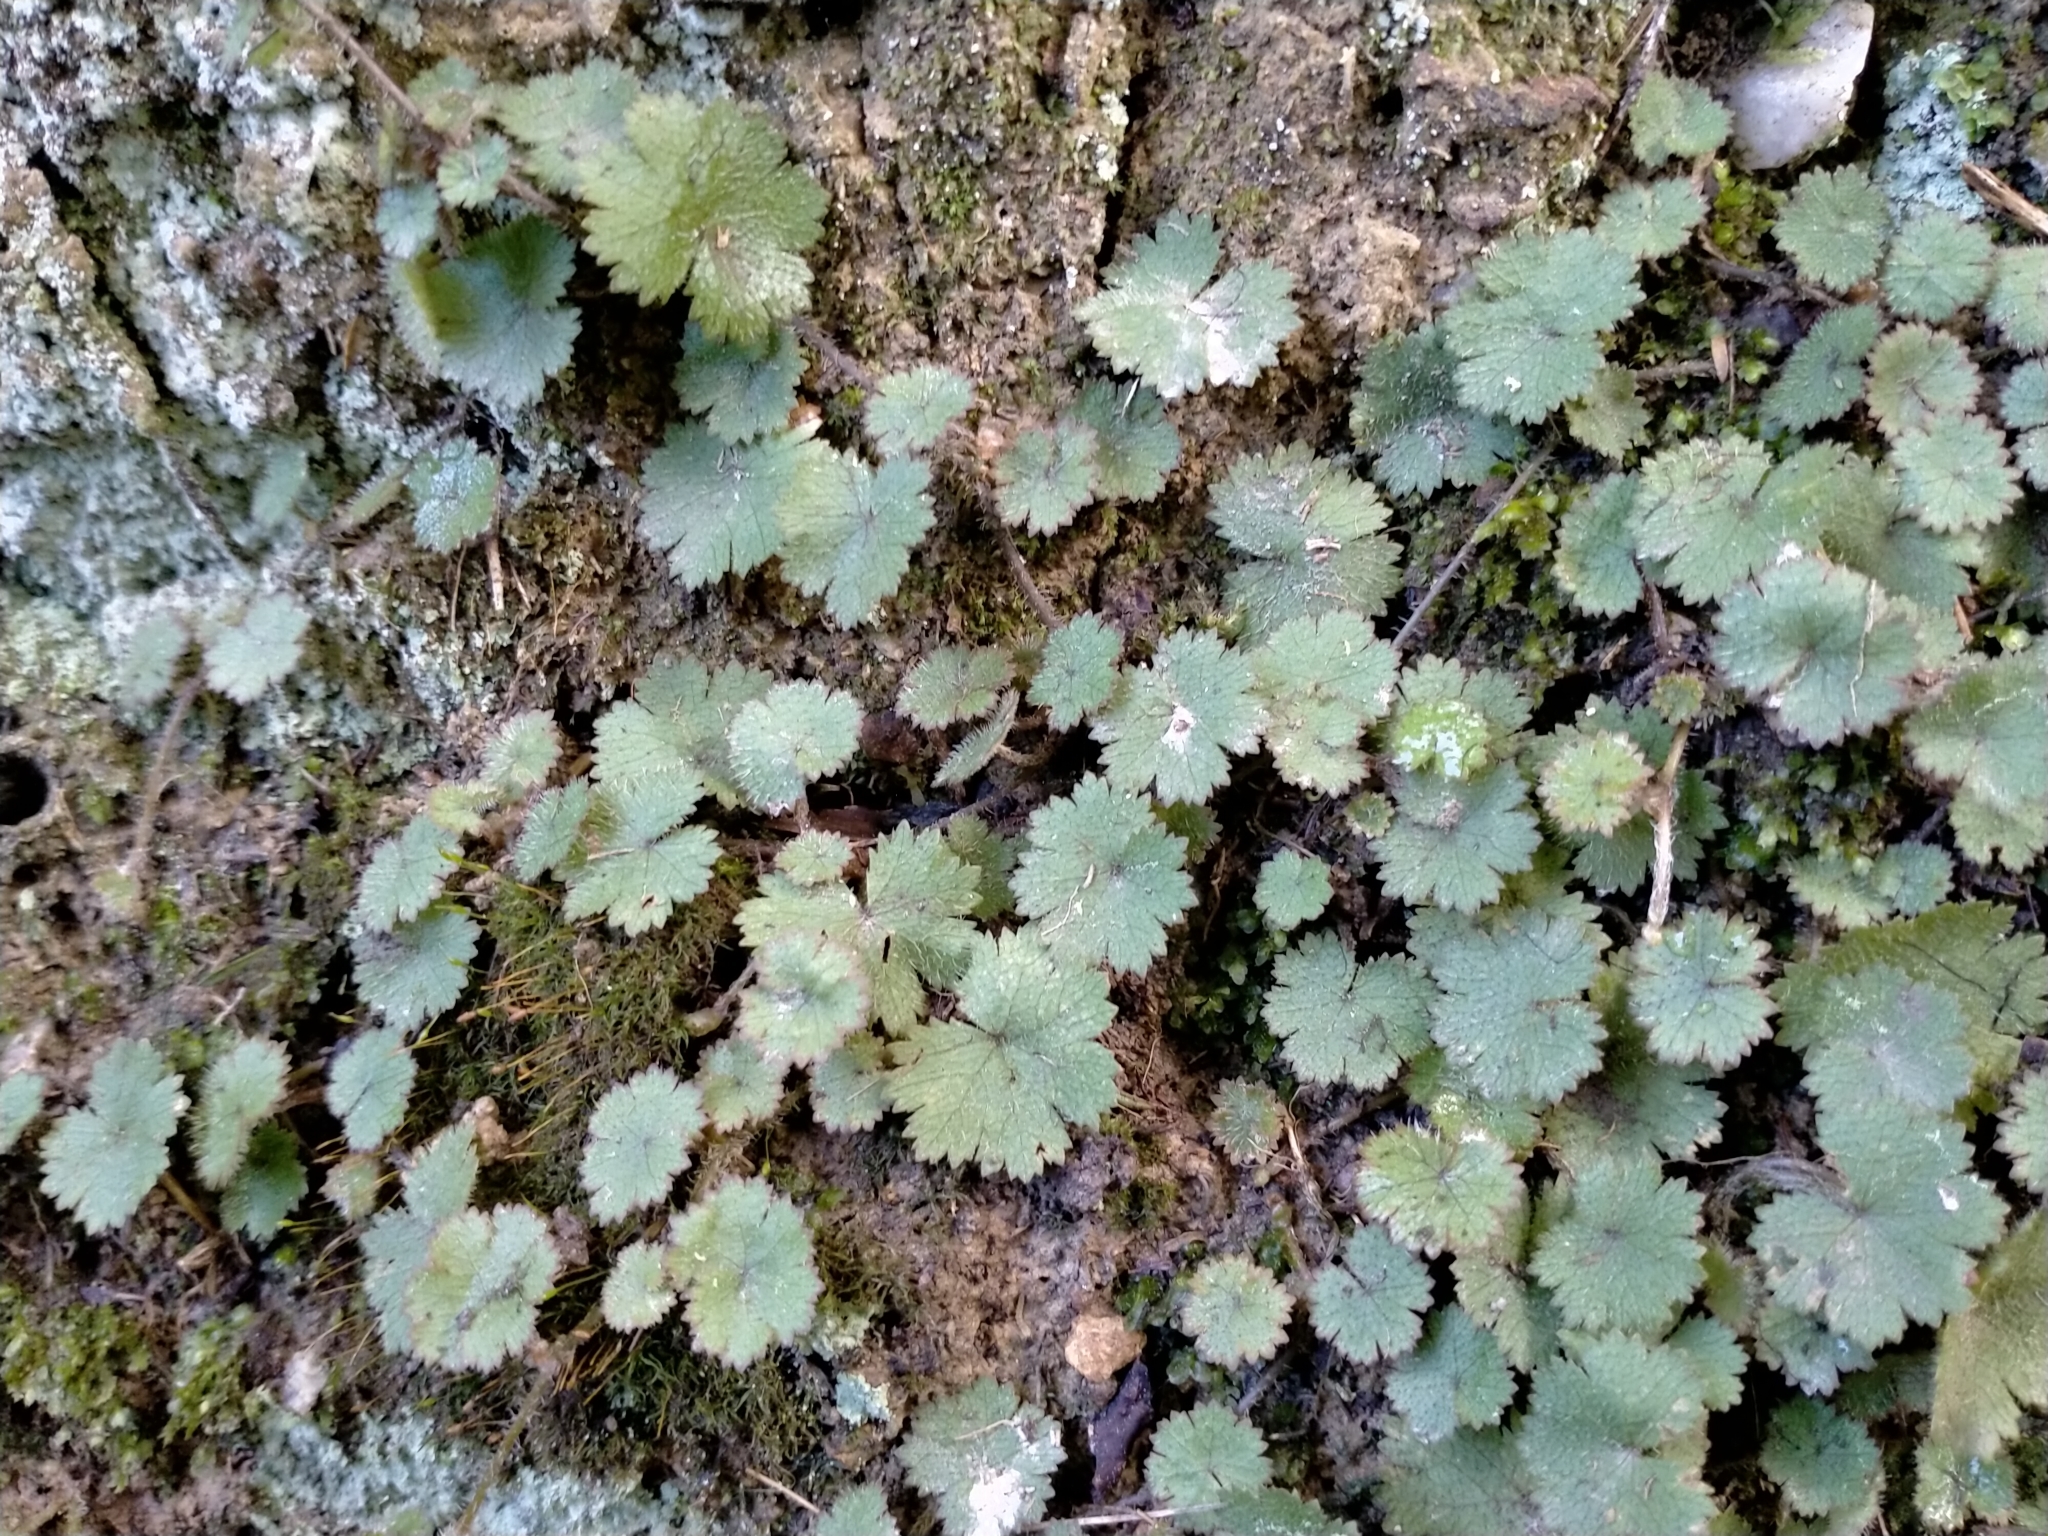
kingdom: Plantae
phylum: Tracheophyta
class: Magnoliopsida
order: Apiales
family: Araliaceae
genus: Hydrocotyle
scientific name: Hydrocotyle moschata
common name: Hairy pennywort
